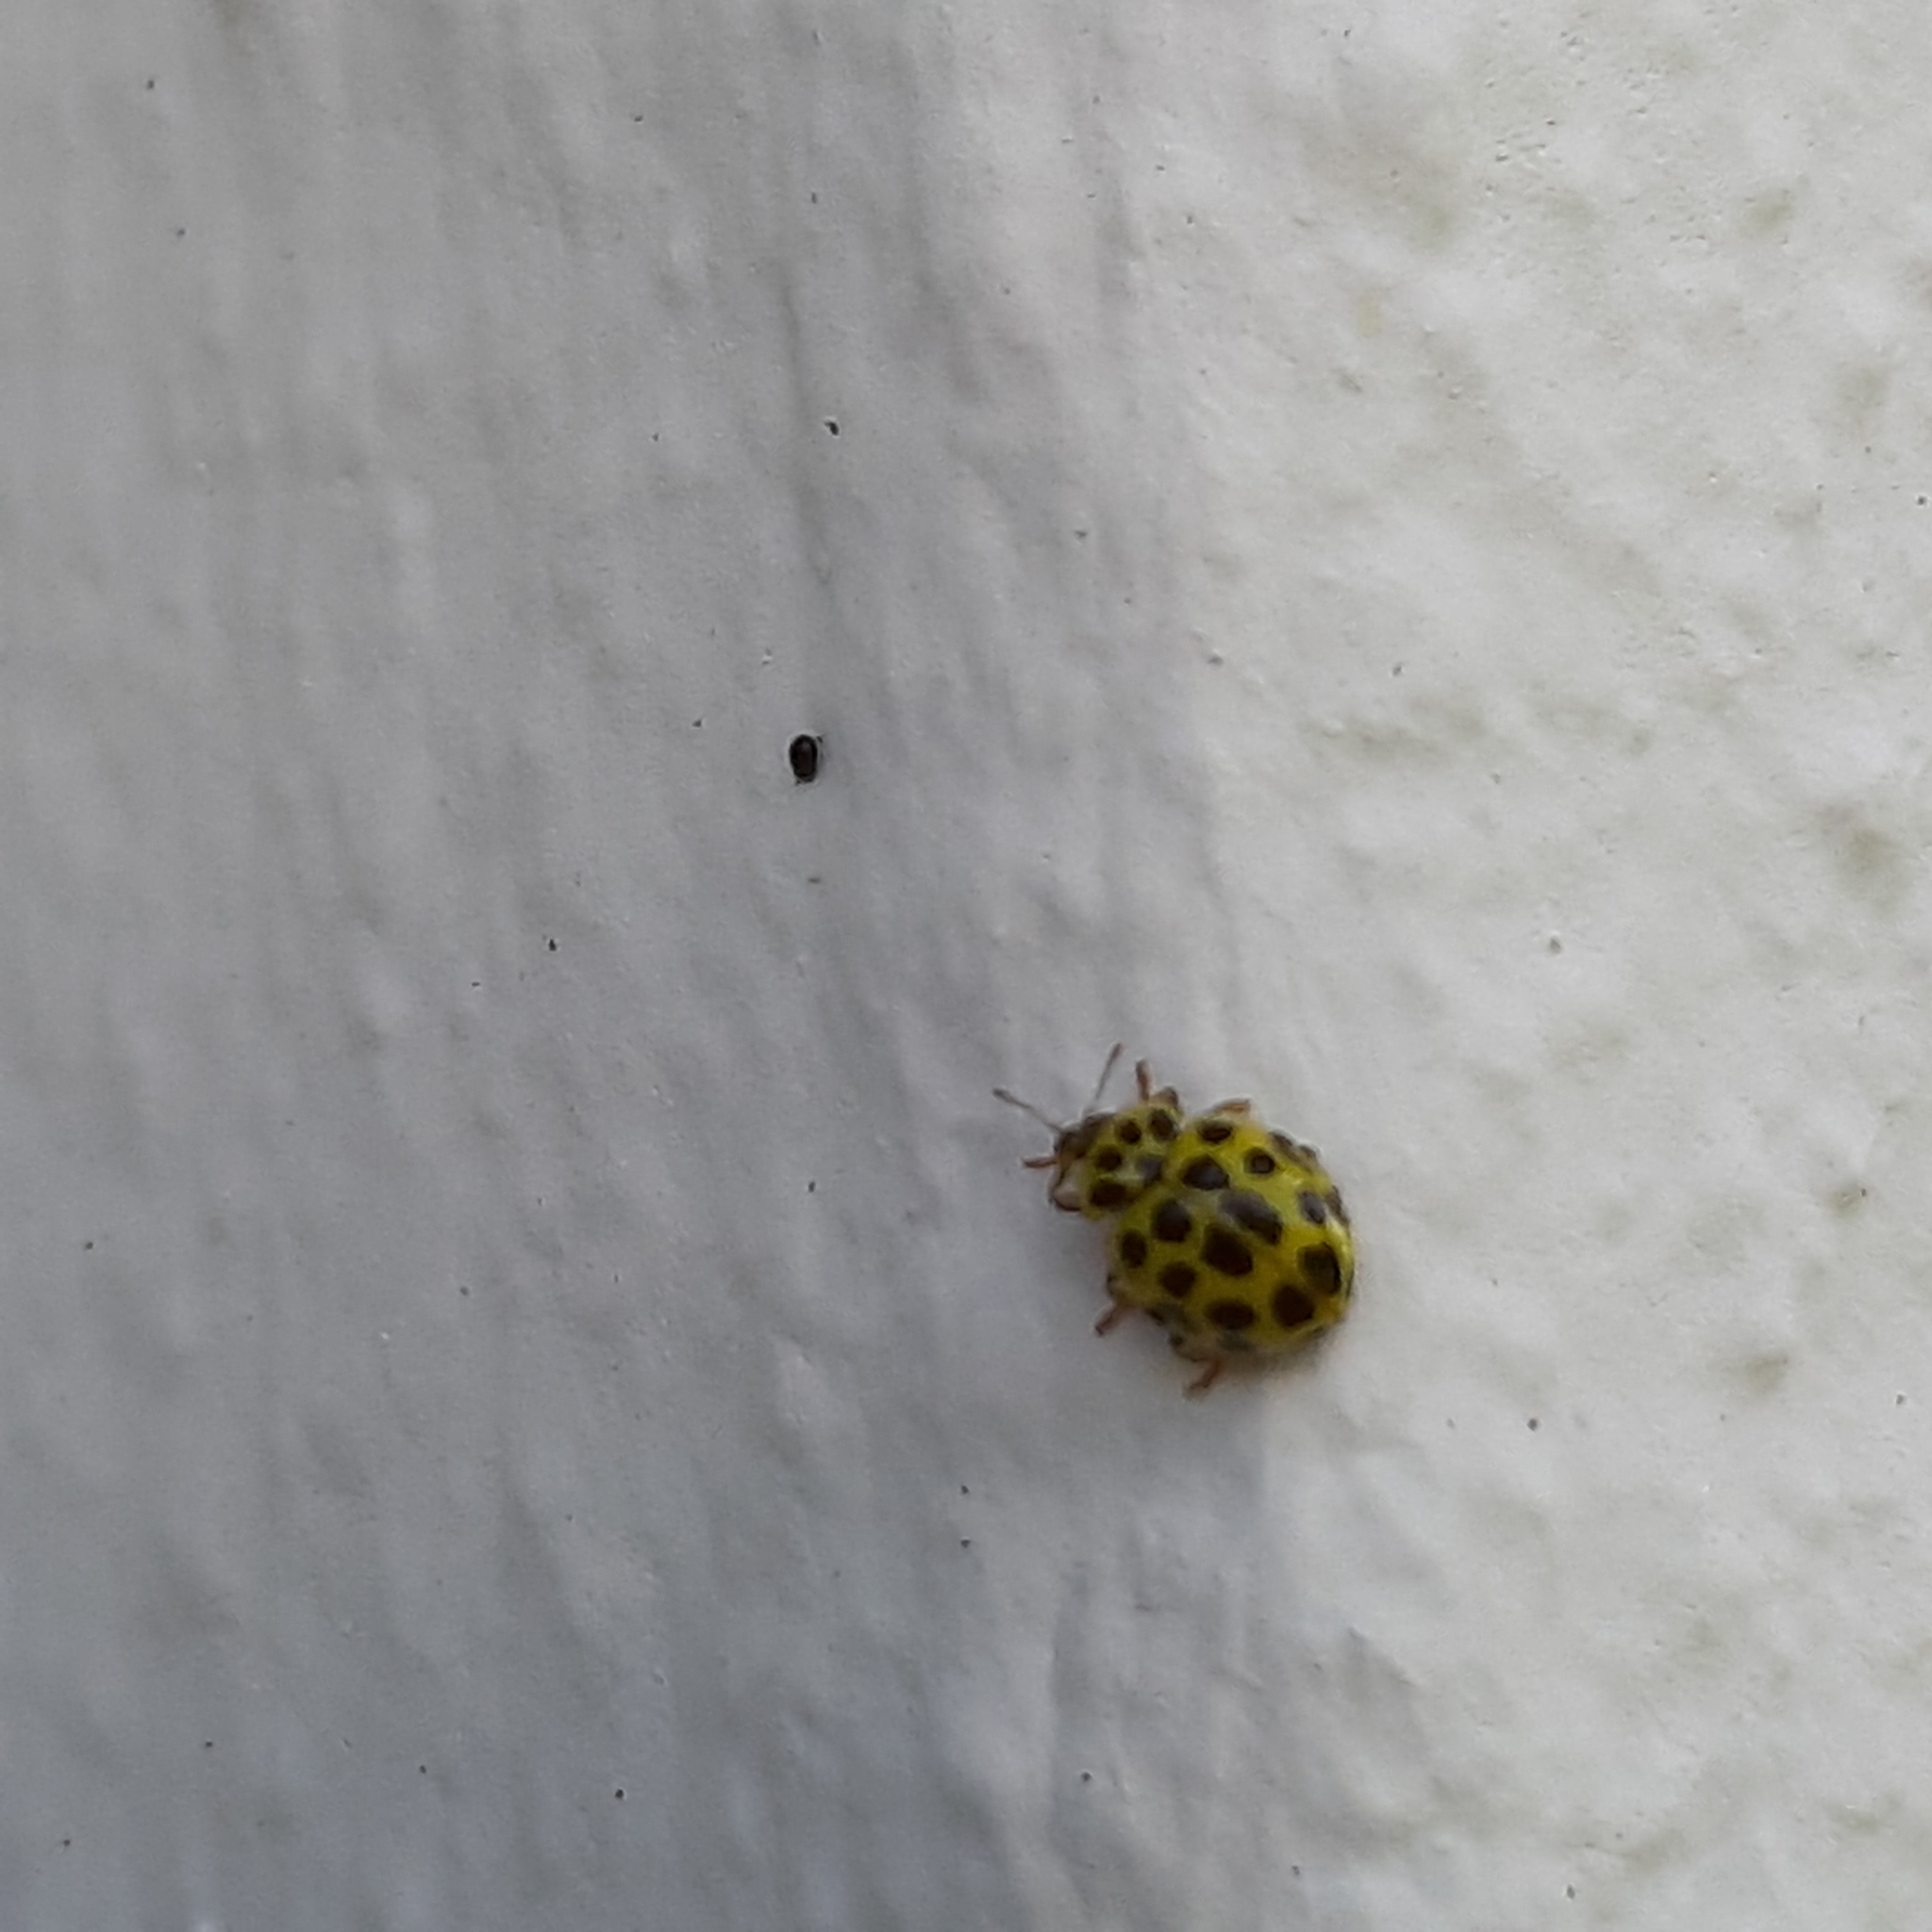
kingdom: Animalia
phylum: Arthropoda
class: Insecta
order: Coleoptera
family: Coccinellidae
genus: Psyllobora
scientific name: Psyllobora vigintiduopunctata
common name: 22-spot ladybird
